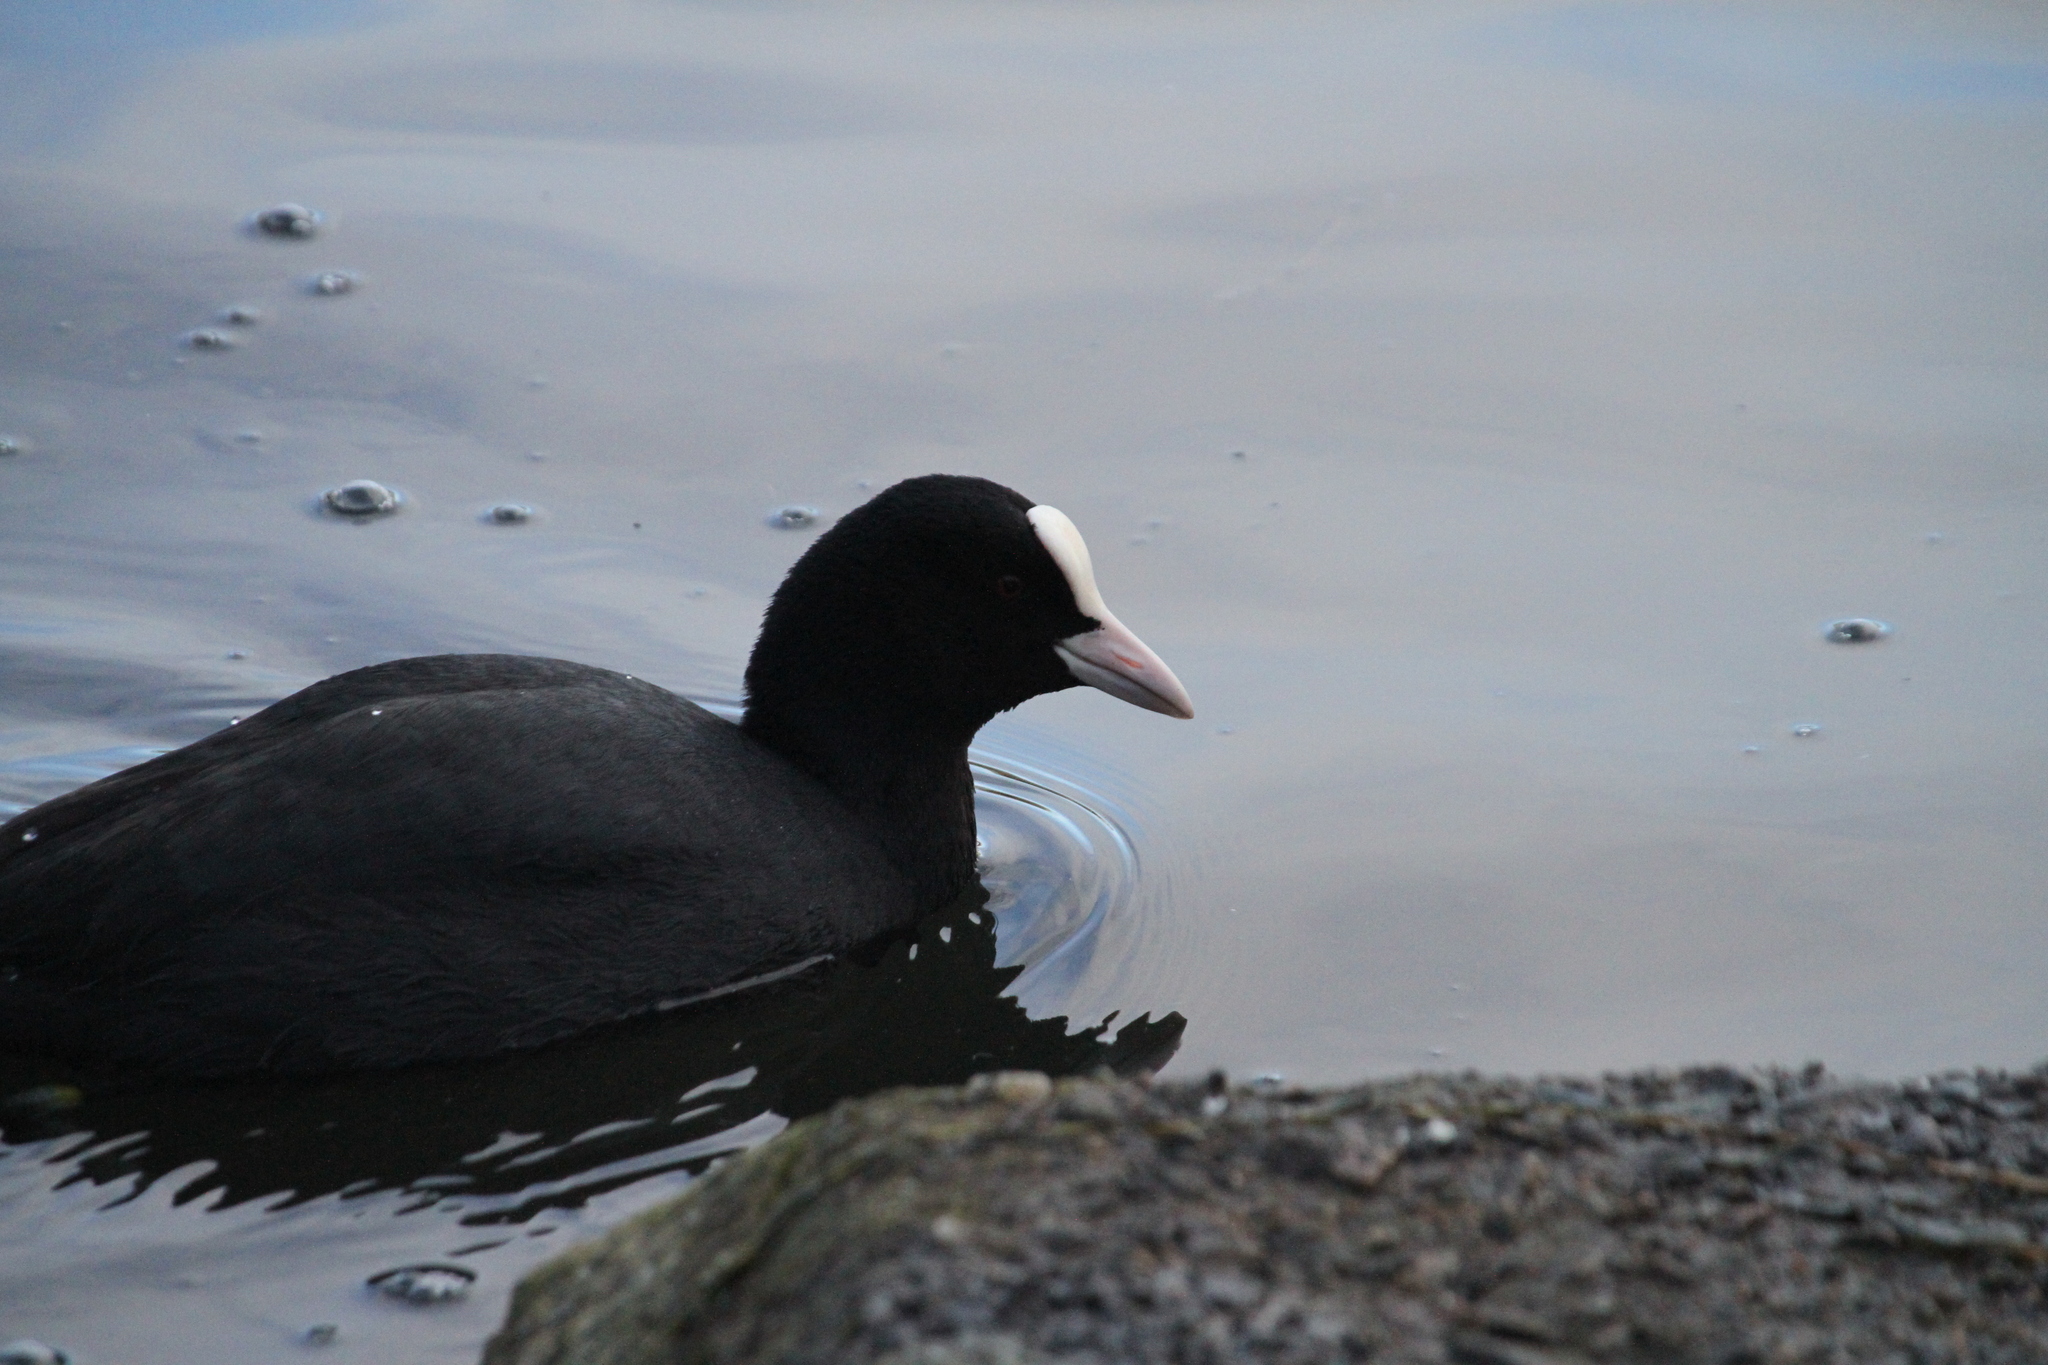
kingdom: Animalia
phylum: Chordata
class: Aves
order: Gruiformes
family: Rallidae
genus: Fulica
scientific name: Fulica atra
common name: Eurasian coot
